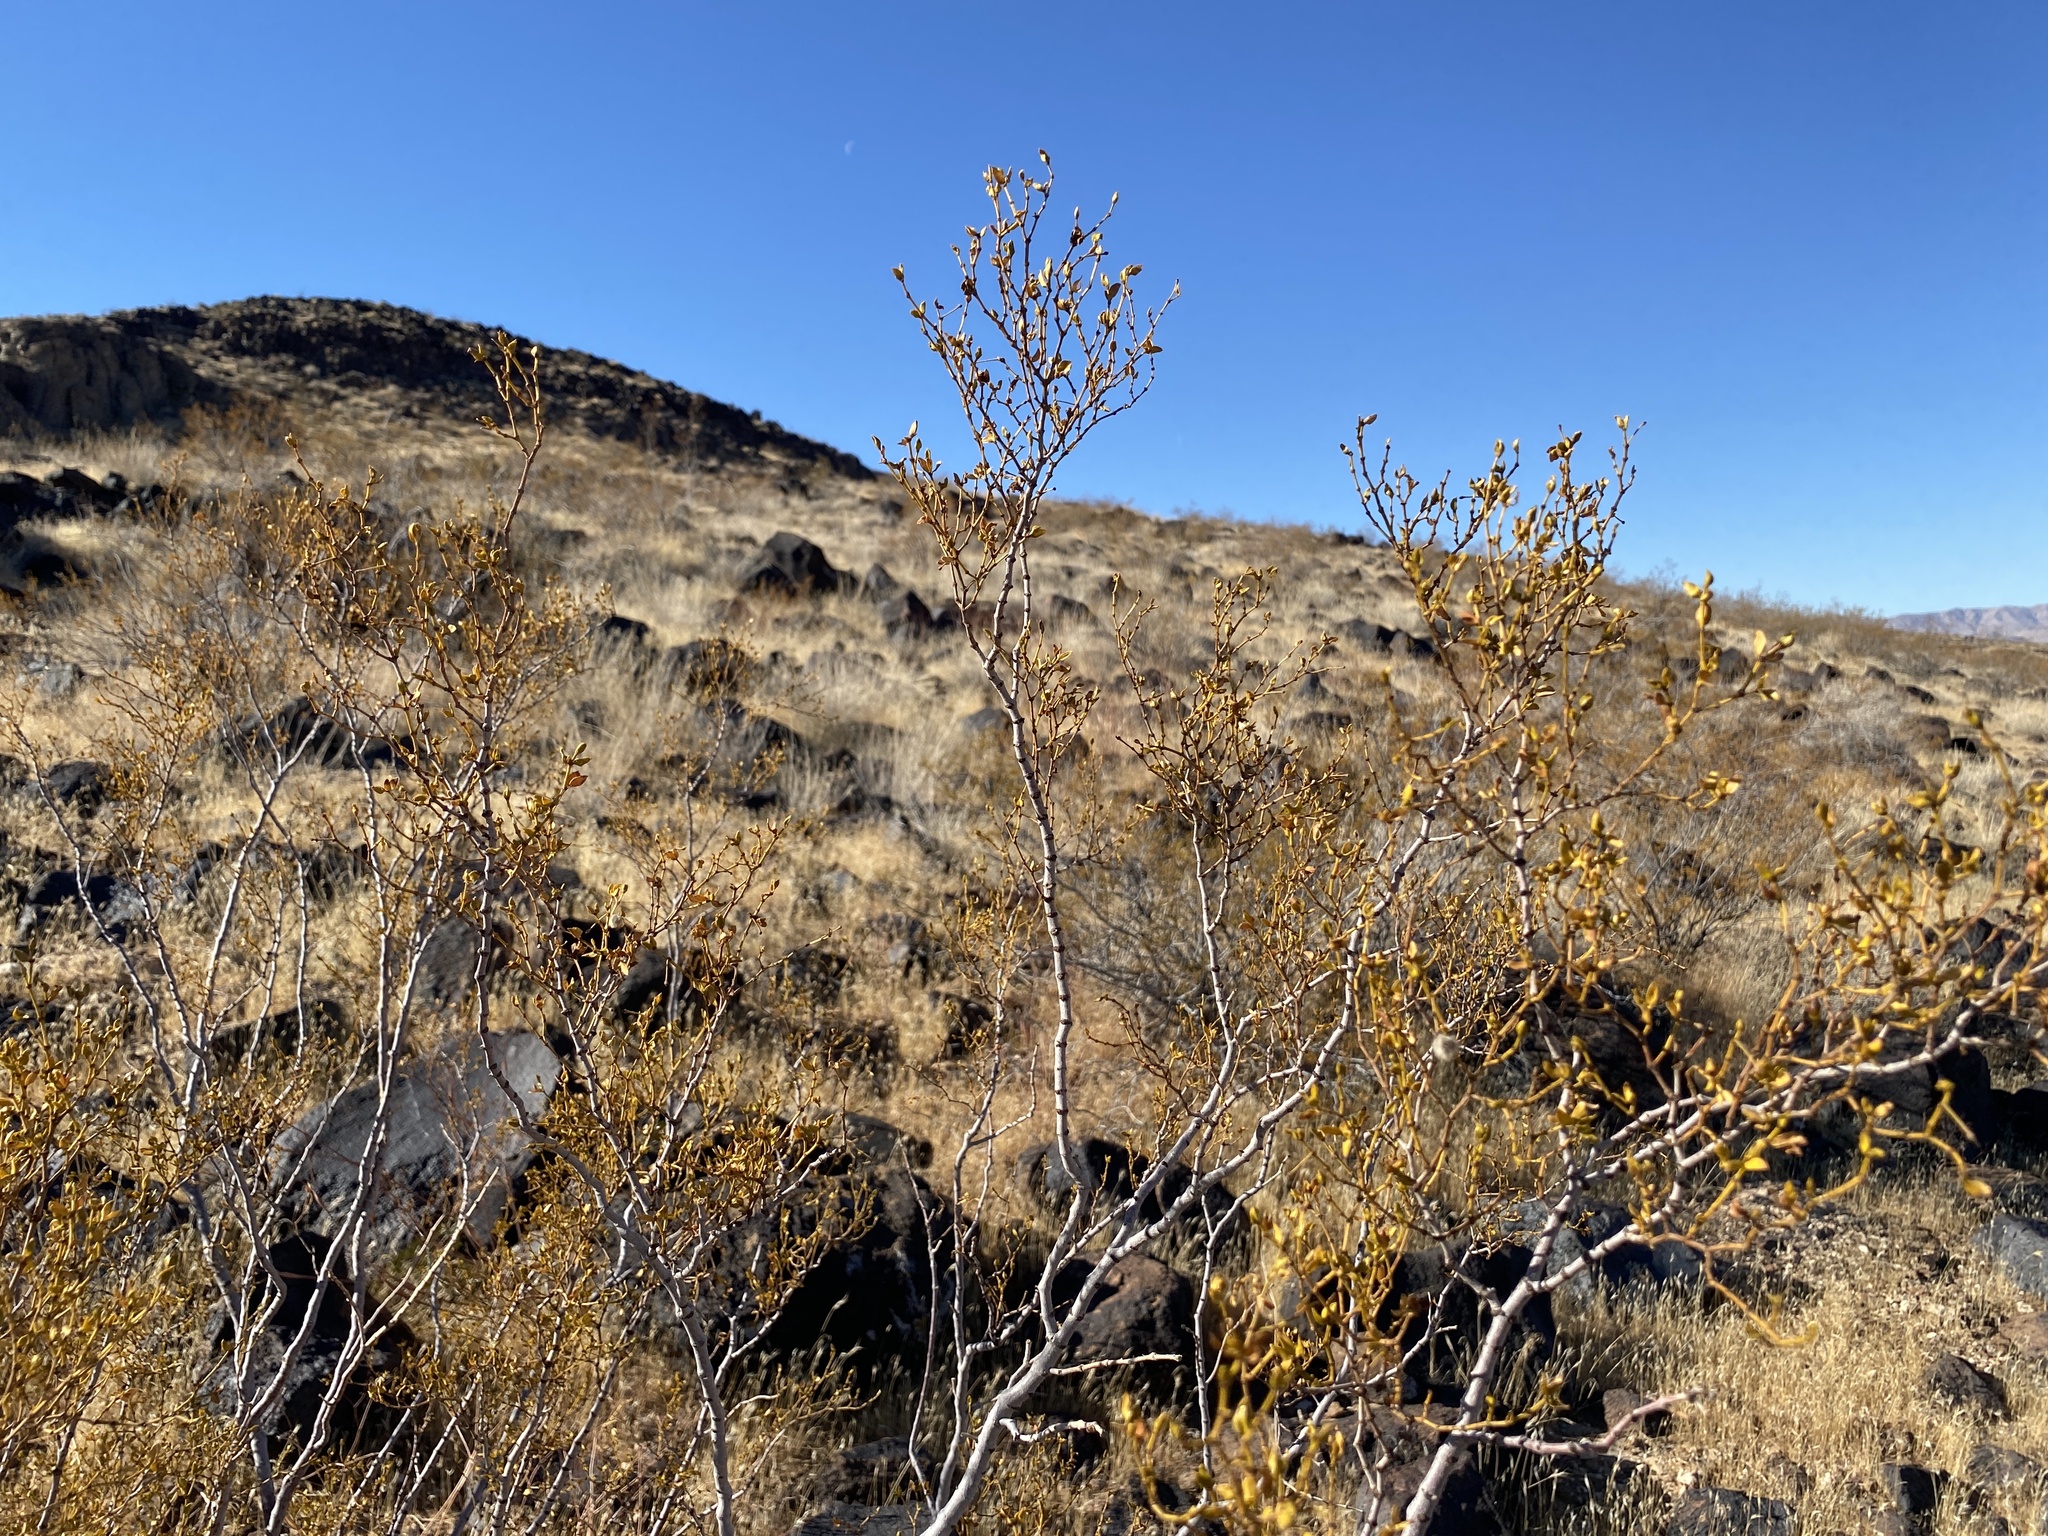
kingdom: Plantae
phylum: Tracheophyta
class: Magnoliopsida
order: Zygophyllales
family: Zygophyllaceae
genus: Larrea
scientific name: Larrea tridentata
